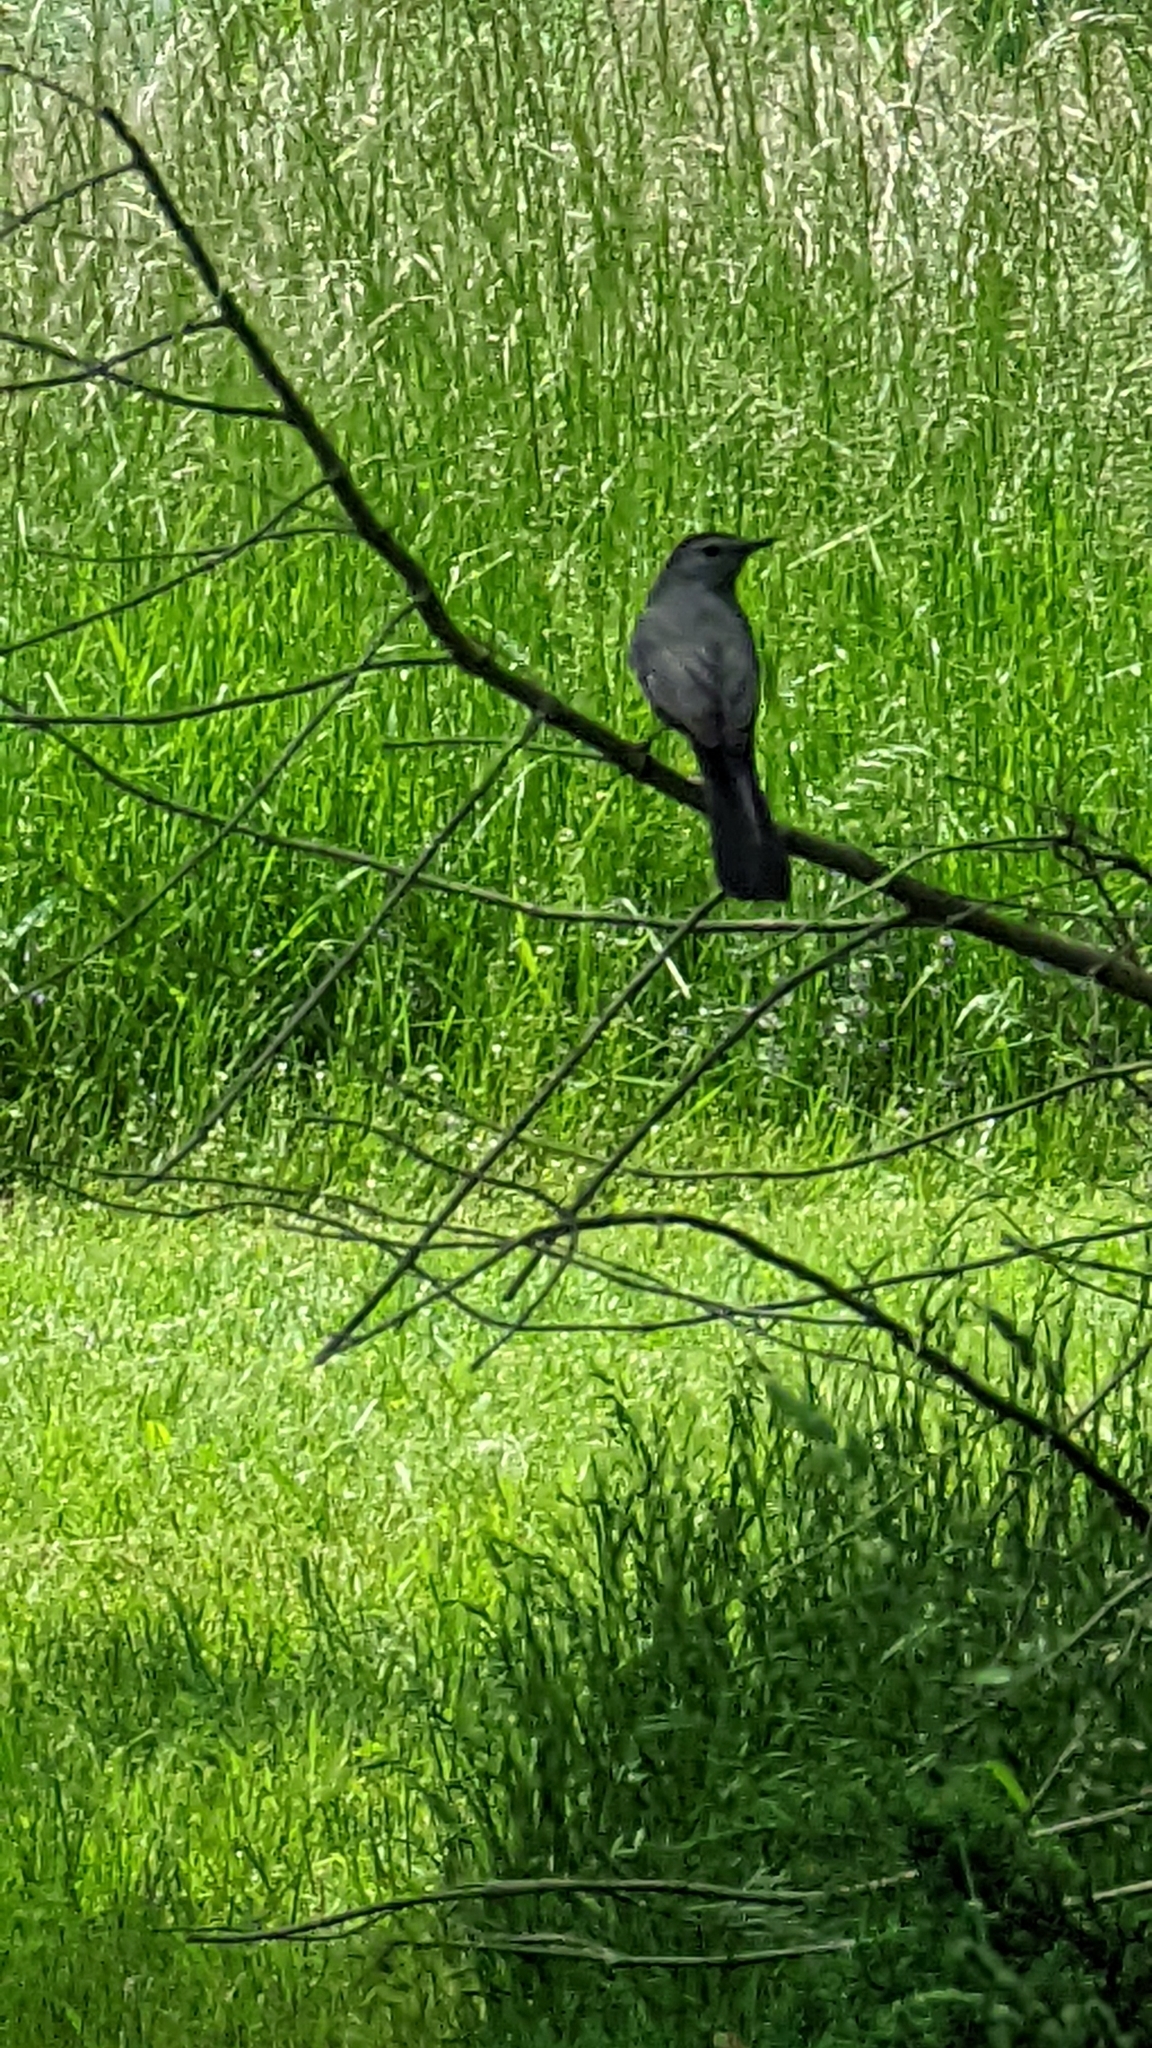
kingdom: Animalia
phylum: Chordata
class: Aves
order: Passeriformes
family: Mimidae
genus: Dumetella
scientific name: Dumetella carolinensis
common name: Gray catbird
